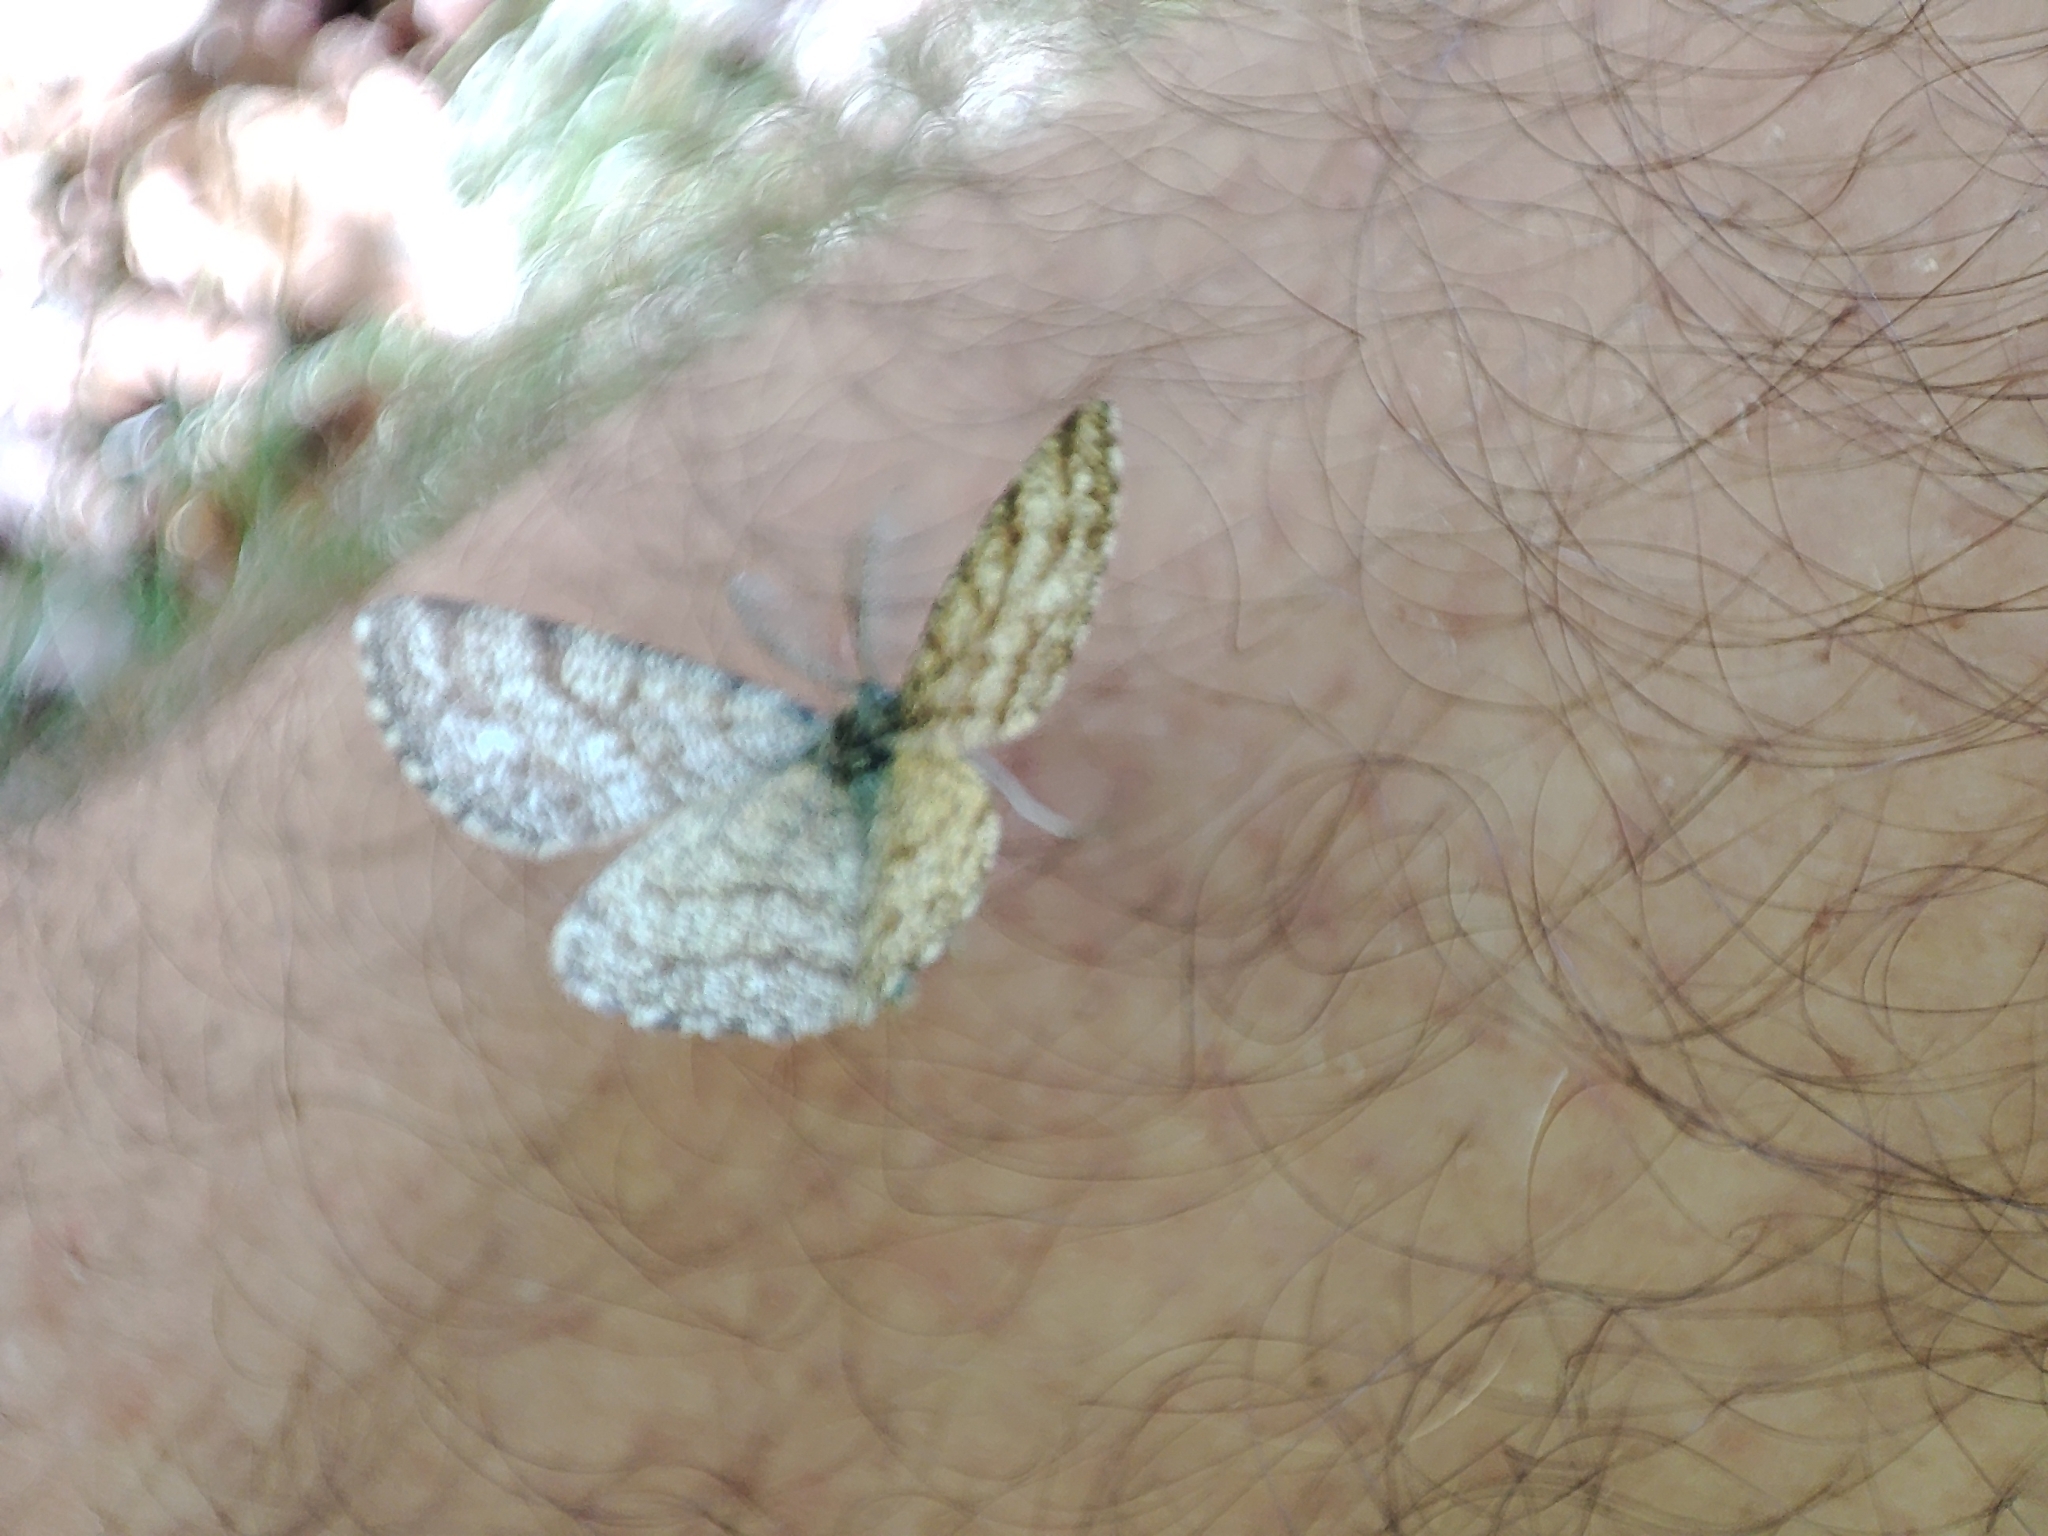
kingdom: Animalia
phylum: Arthropoda
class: Insecta
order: Lepidoptera
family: Geometridae
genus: Ematurga
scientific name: Ematurga atomaria
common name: Common heath
